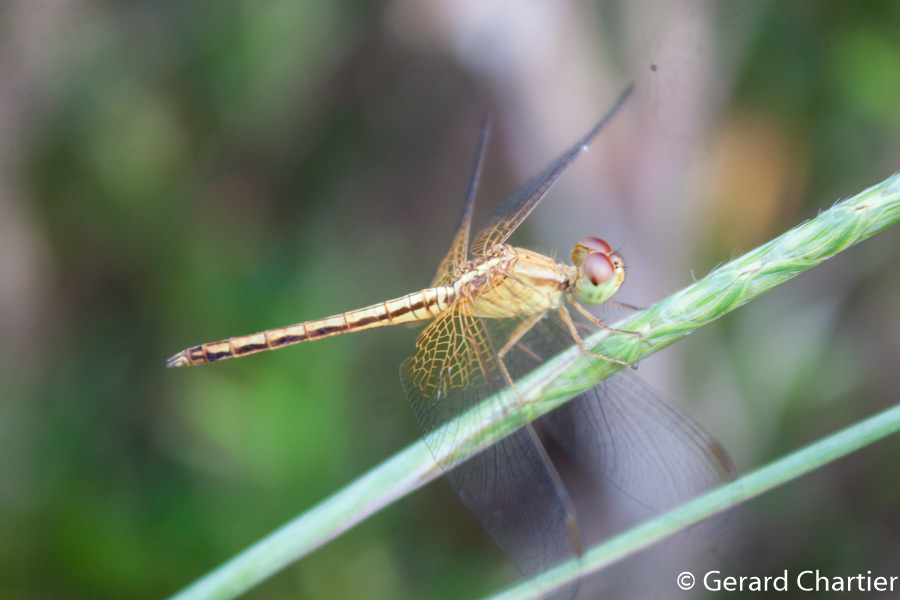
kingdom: Animalia
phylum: Arthropoda
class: Insecta
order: Odonata
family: Libellulidae
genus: Neurothemis
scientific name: Neurothemis intermedia
